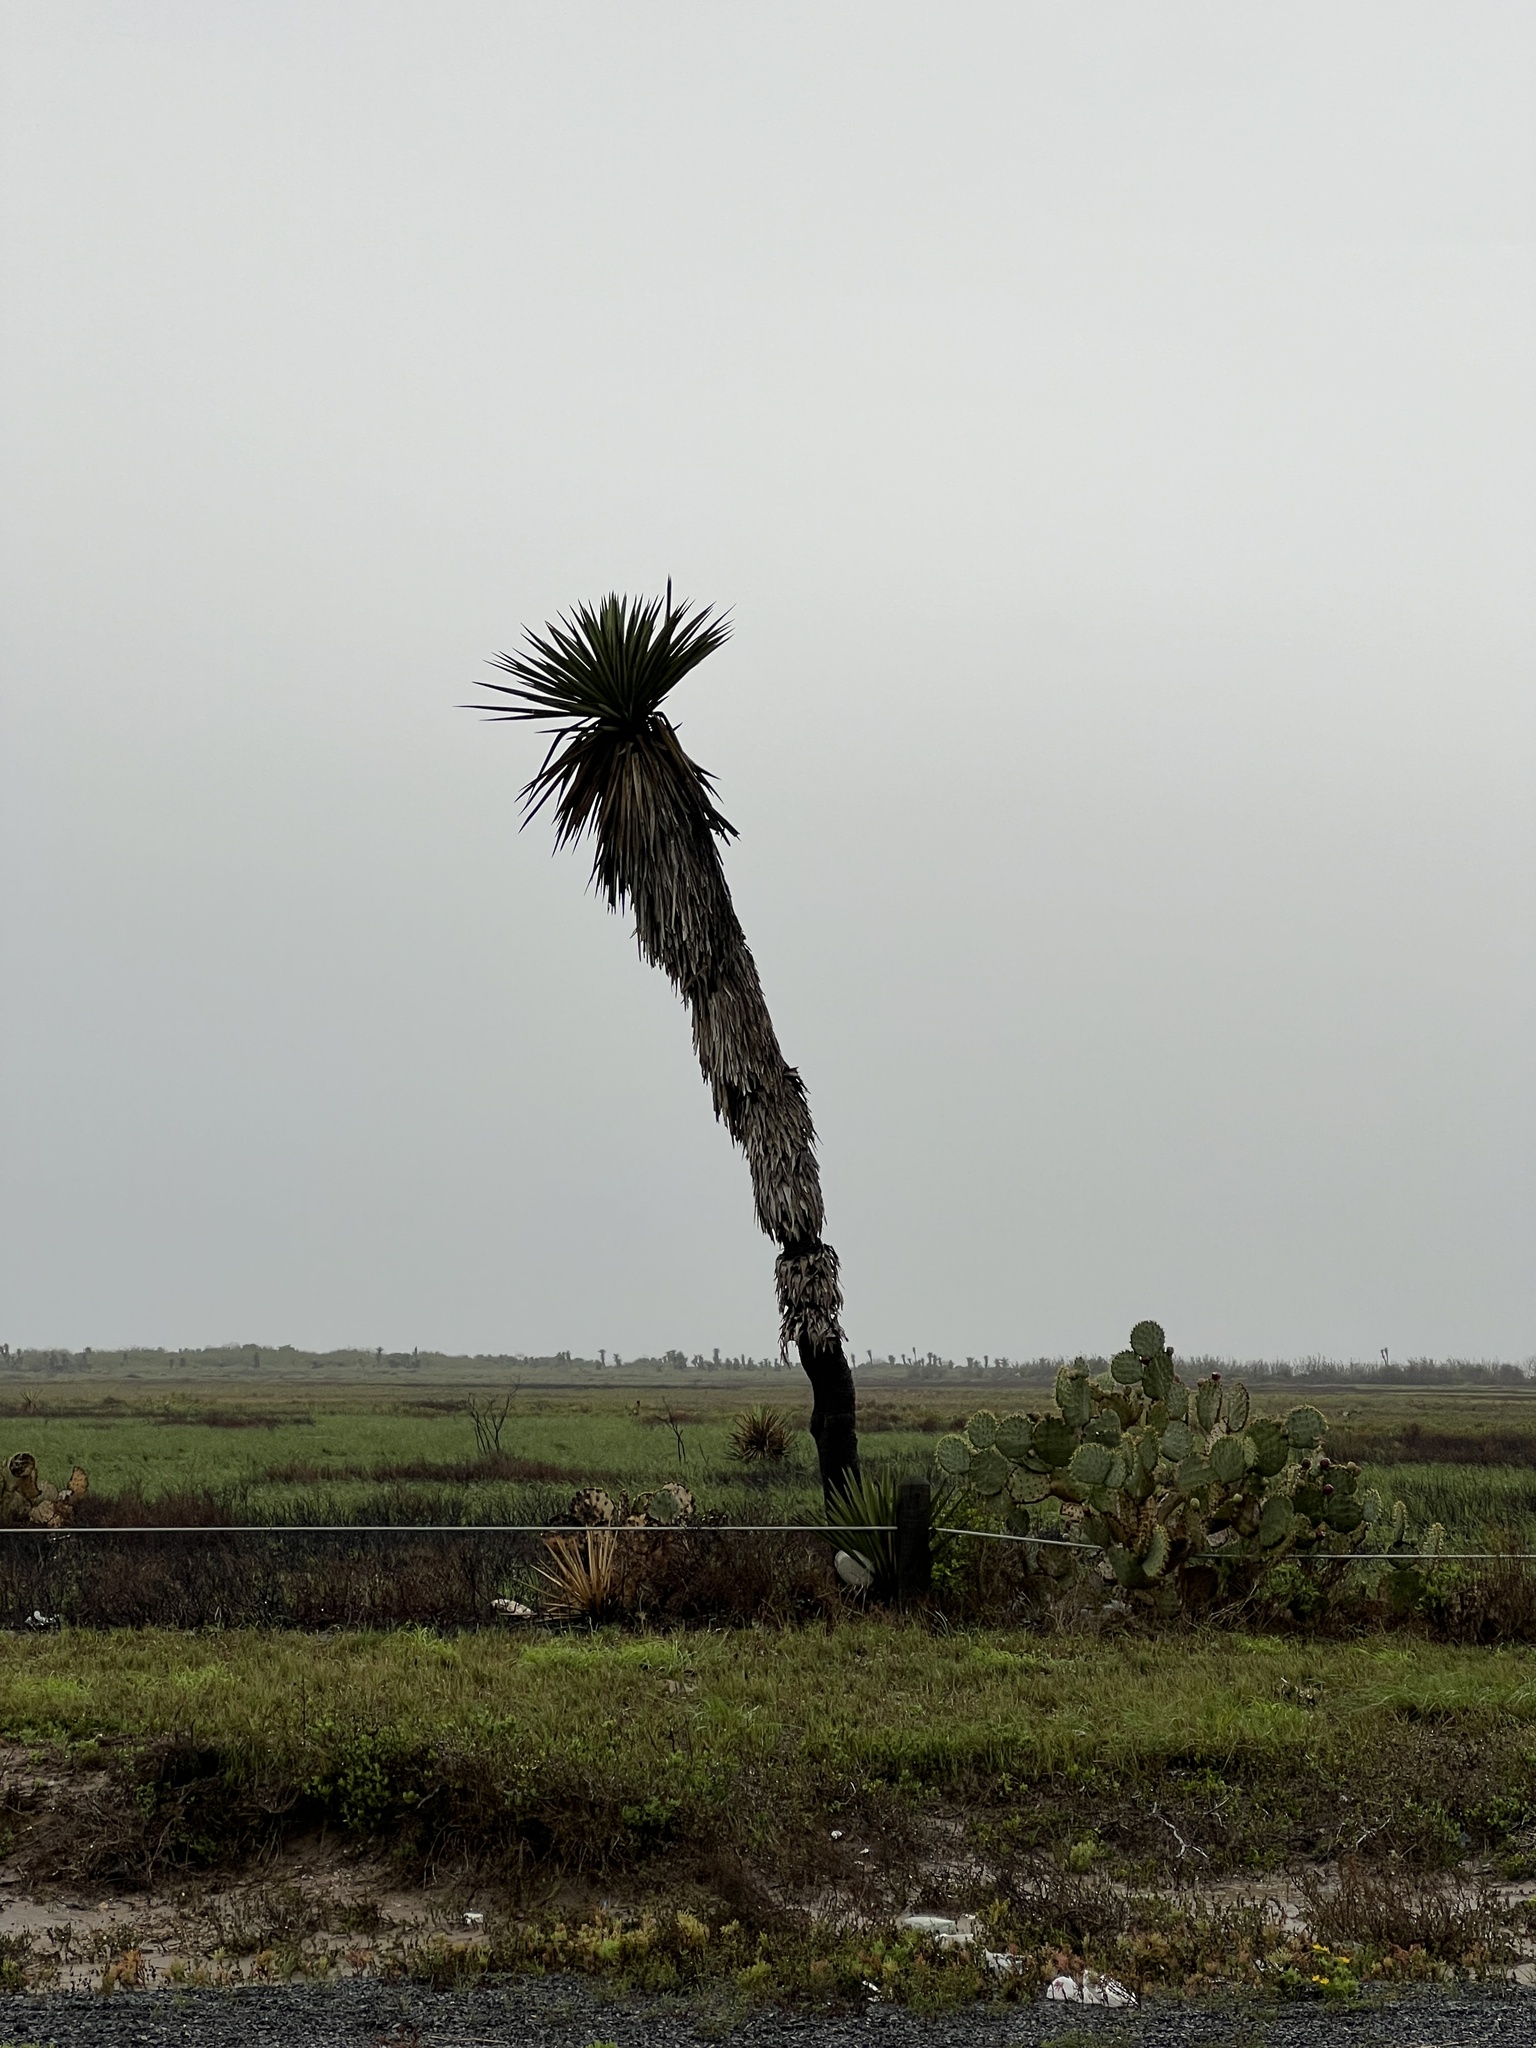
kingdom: Plantae
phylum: Tracheophyta
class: Liliopsida
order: Asparagales
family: Asparagaceae
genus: Yucca
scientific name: Yucca treculiana
